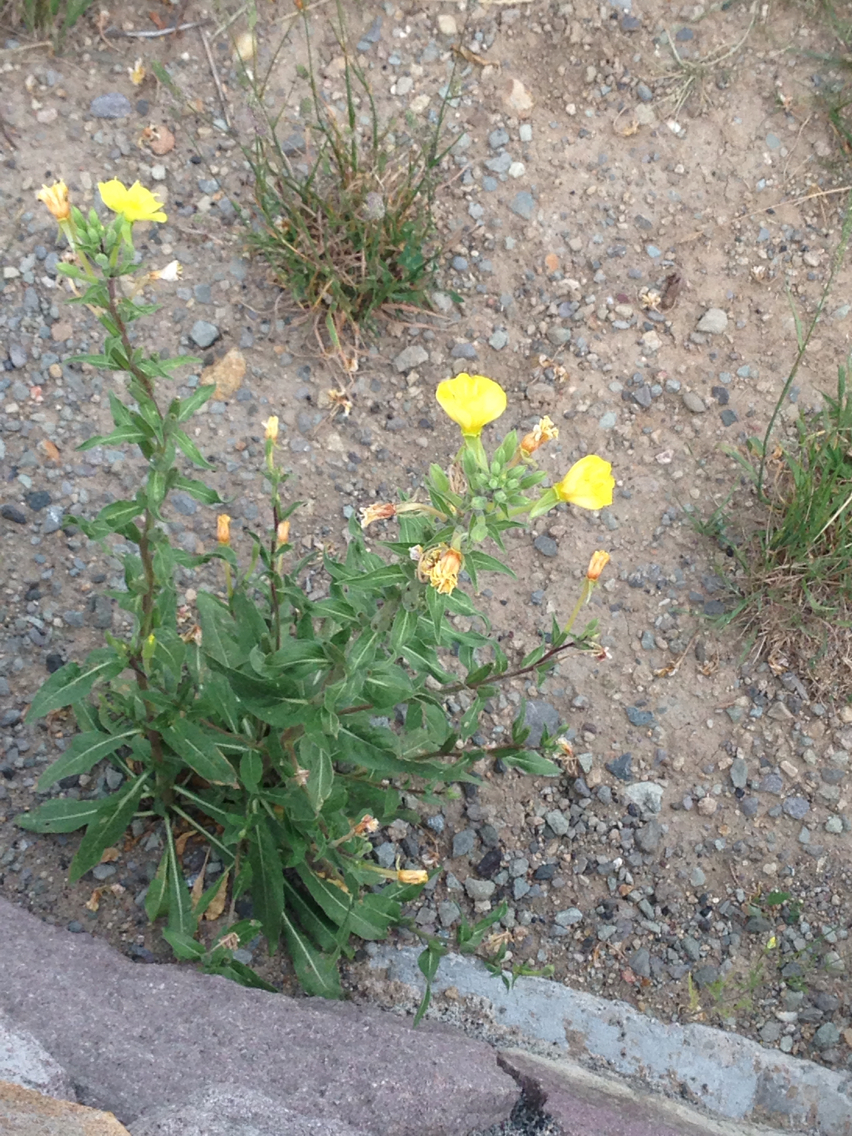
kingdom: Plantae
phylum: Tracheophyta
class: Magnoliopsida
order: Myrtales
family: Onagraceae
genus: Oenothera
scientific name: Oenothera elata
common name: Hooker's evening-primrose
